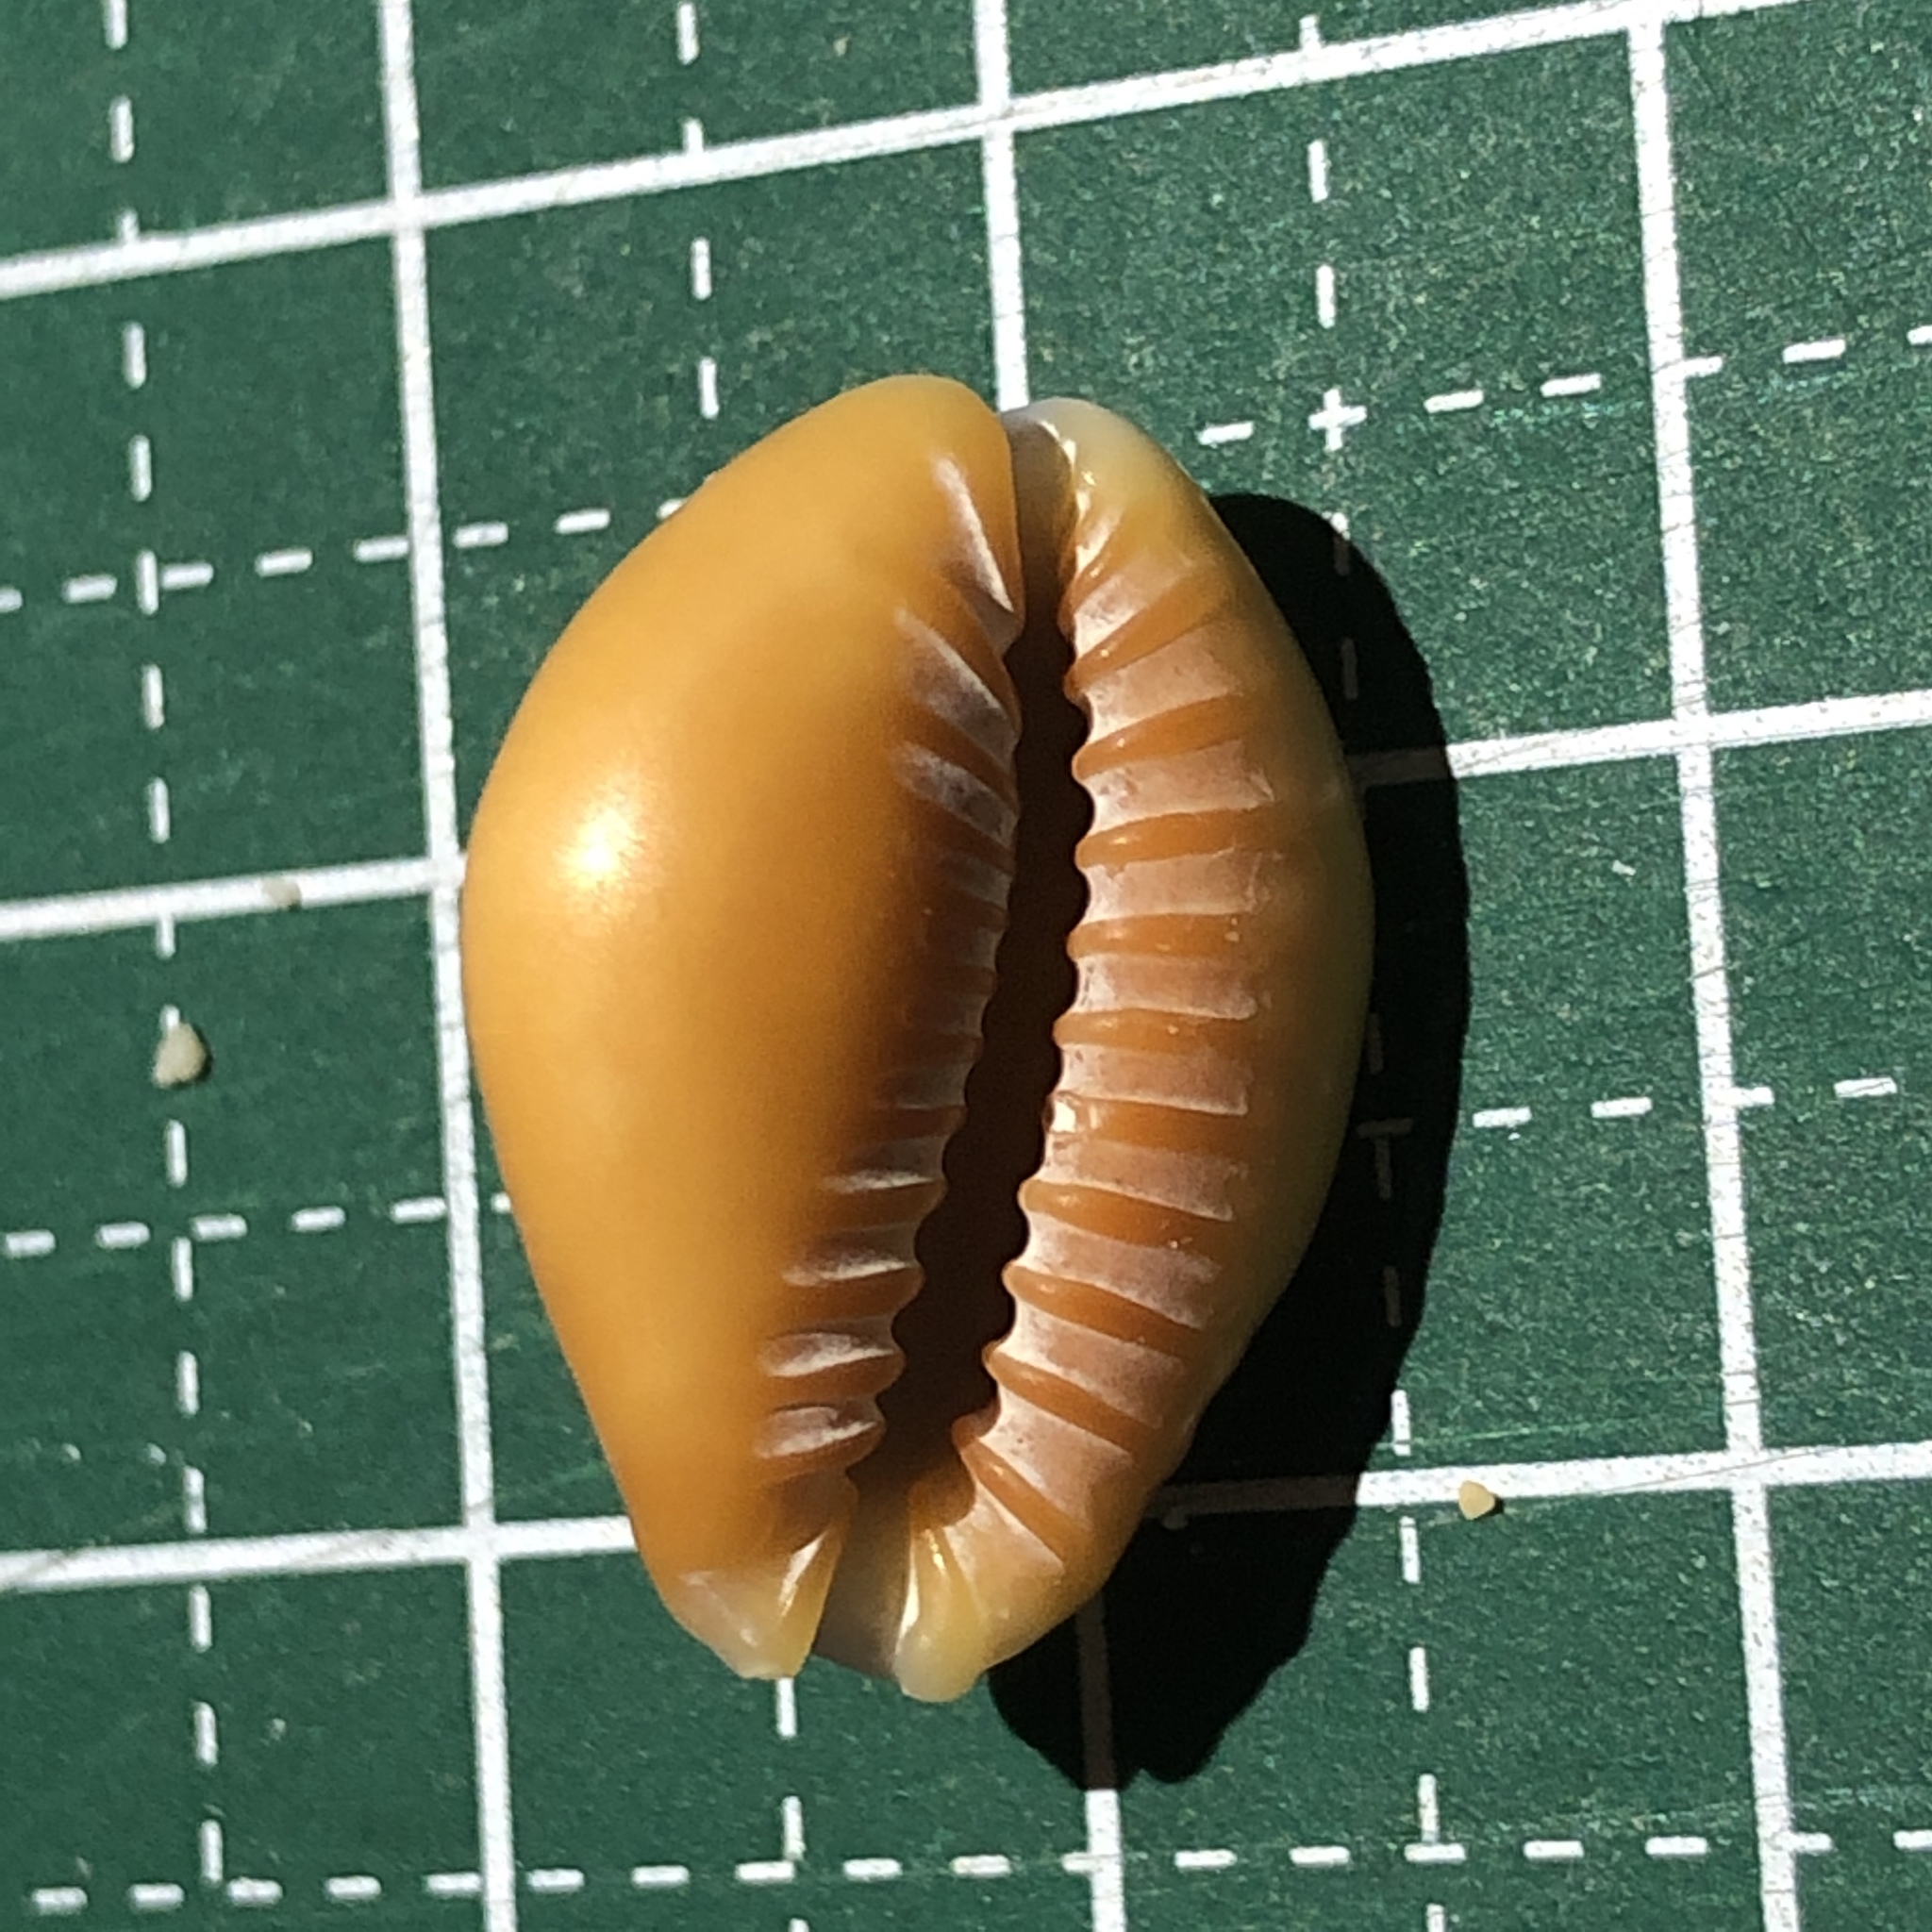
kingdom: Animalia
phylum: Mollusca
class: Gastropoda
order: Littorinimorpha
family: Cypraeidae
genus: Naria
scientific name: Naria helvola
